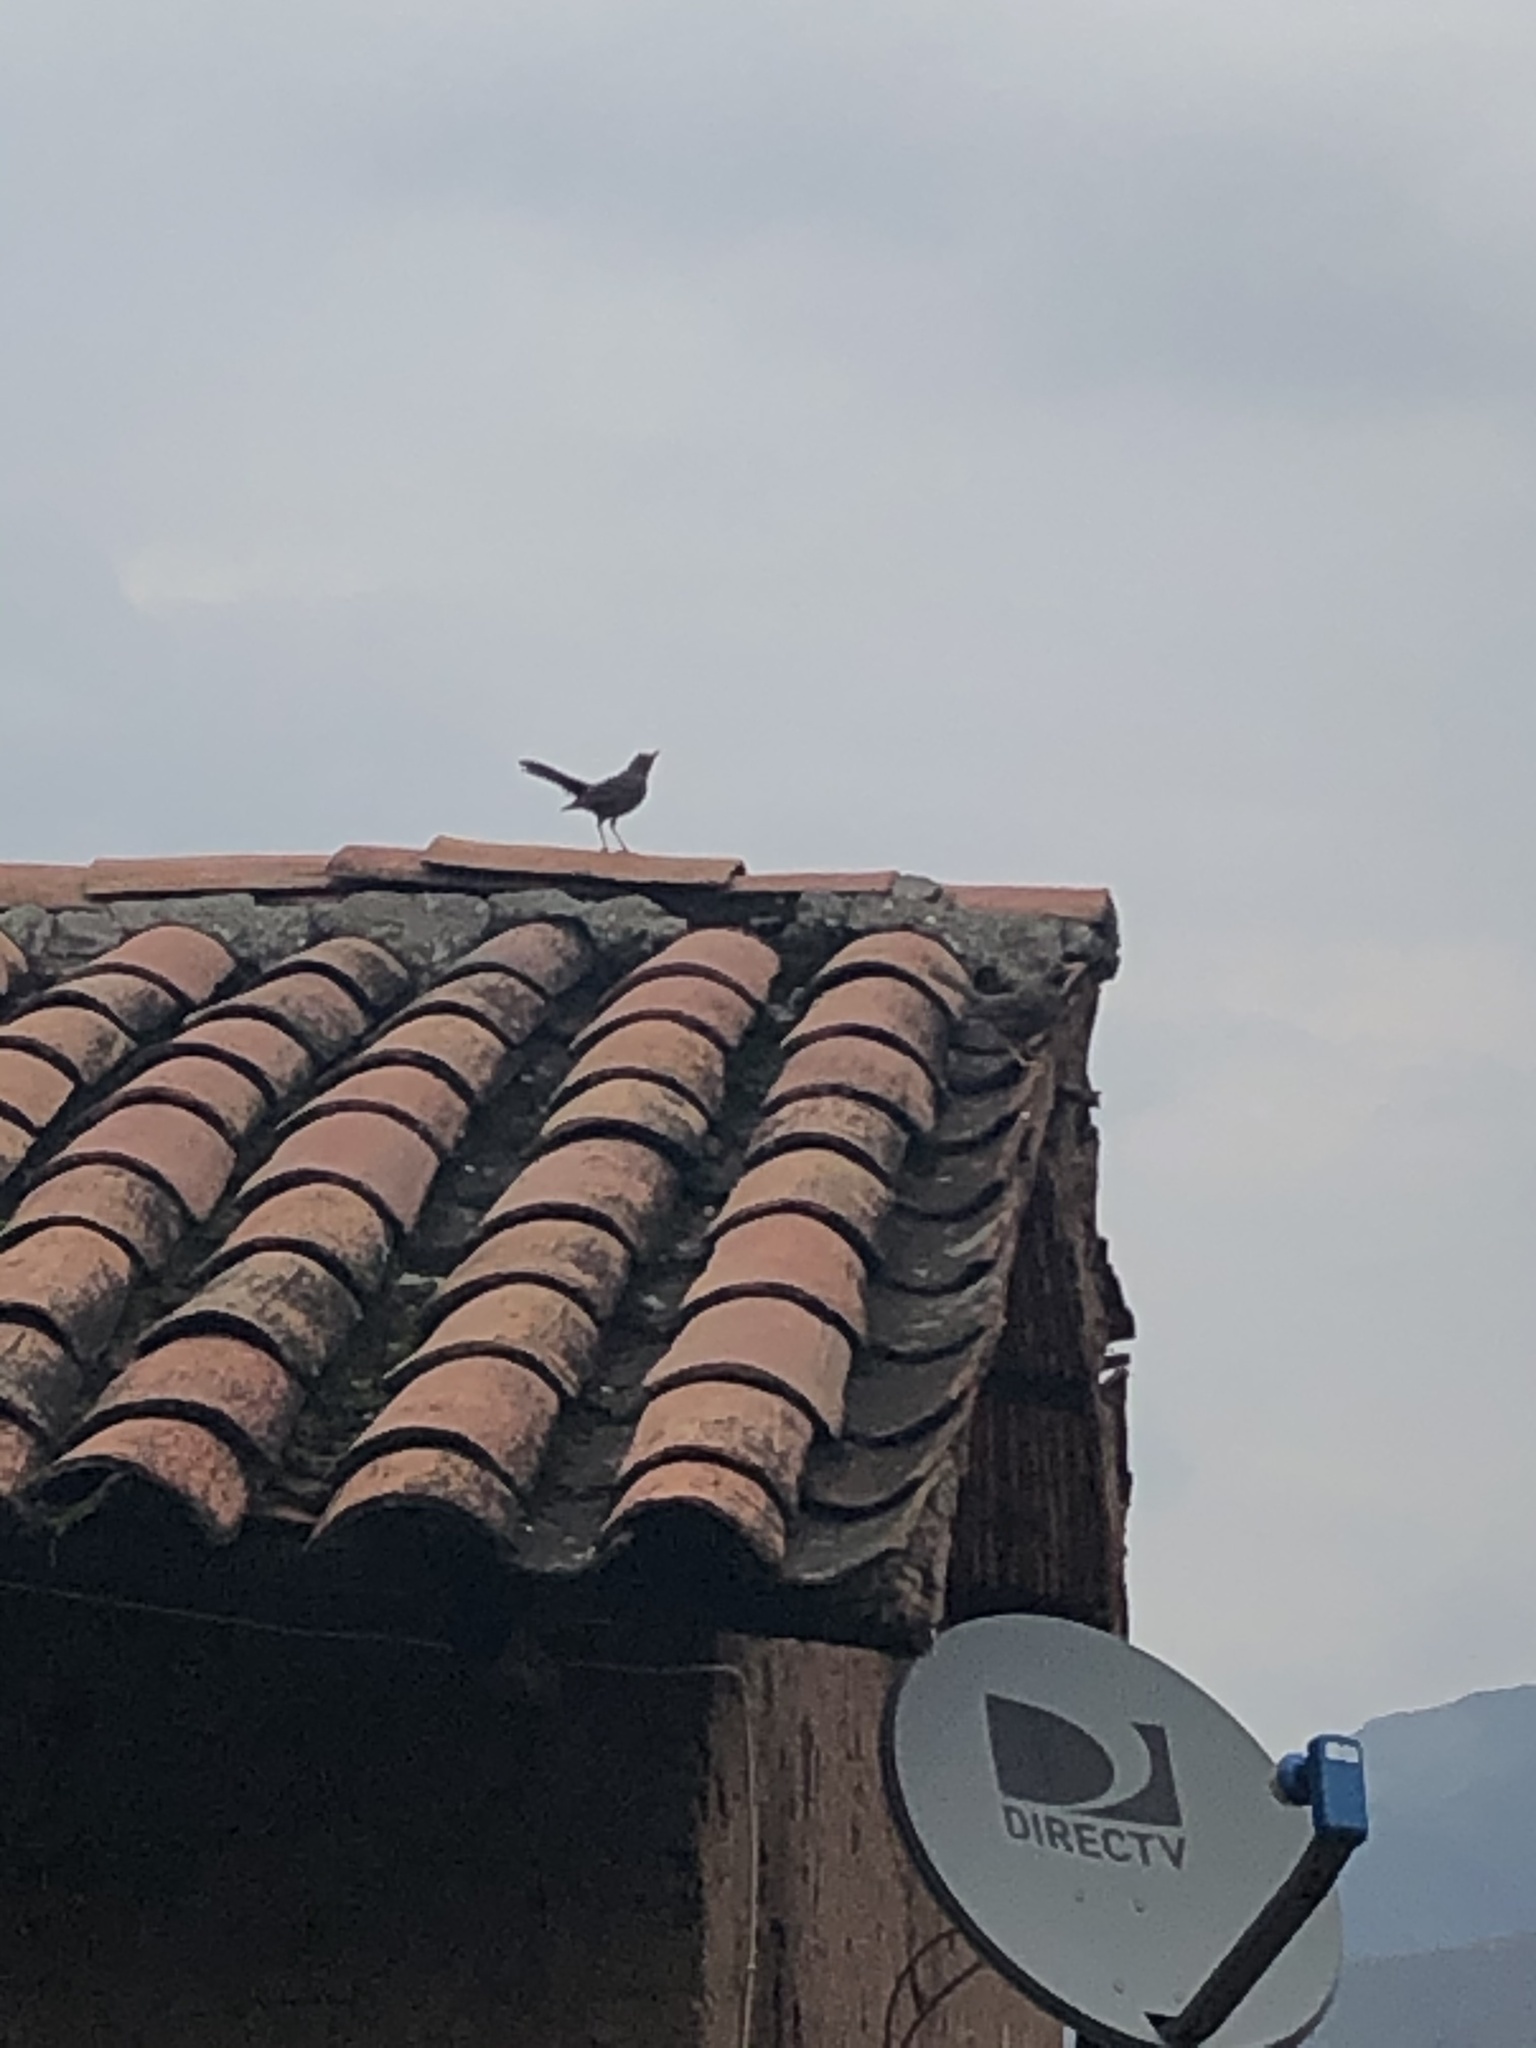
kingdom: Animalia
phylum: Chordata
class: Aves
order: Passeriformes
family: Turdidae
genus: Turdus
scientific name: Turdus chiguanco
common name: Chiguanco thrush
